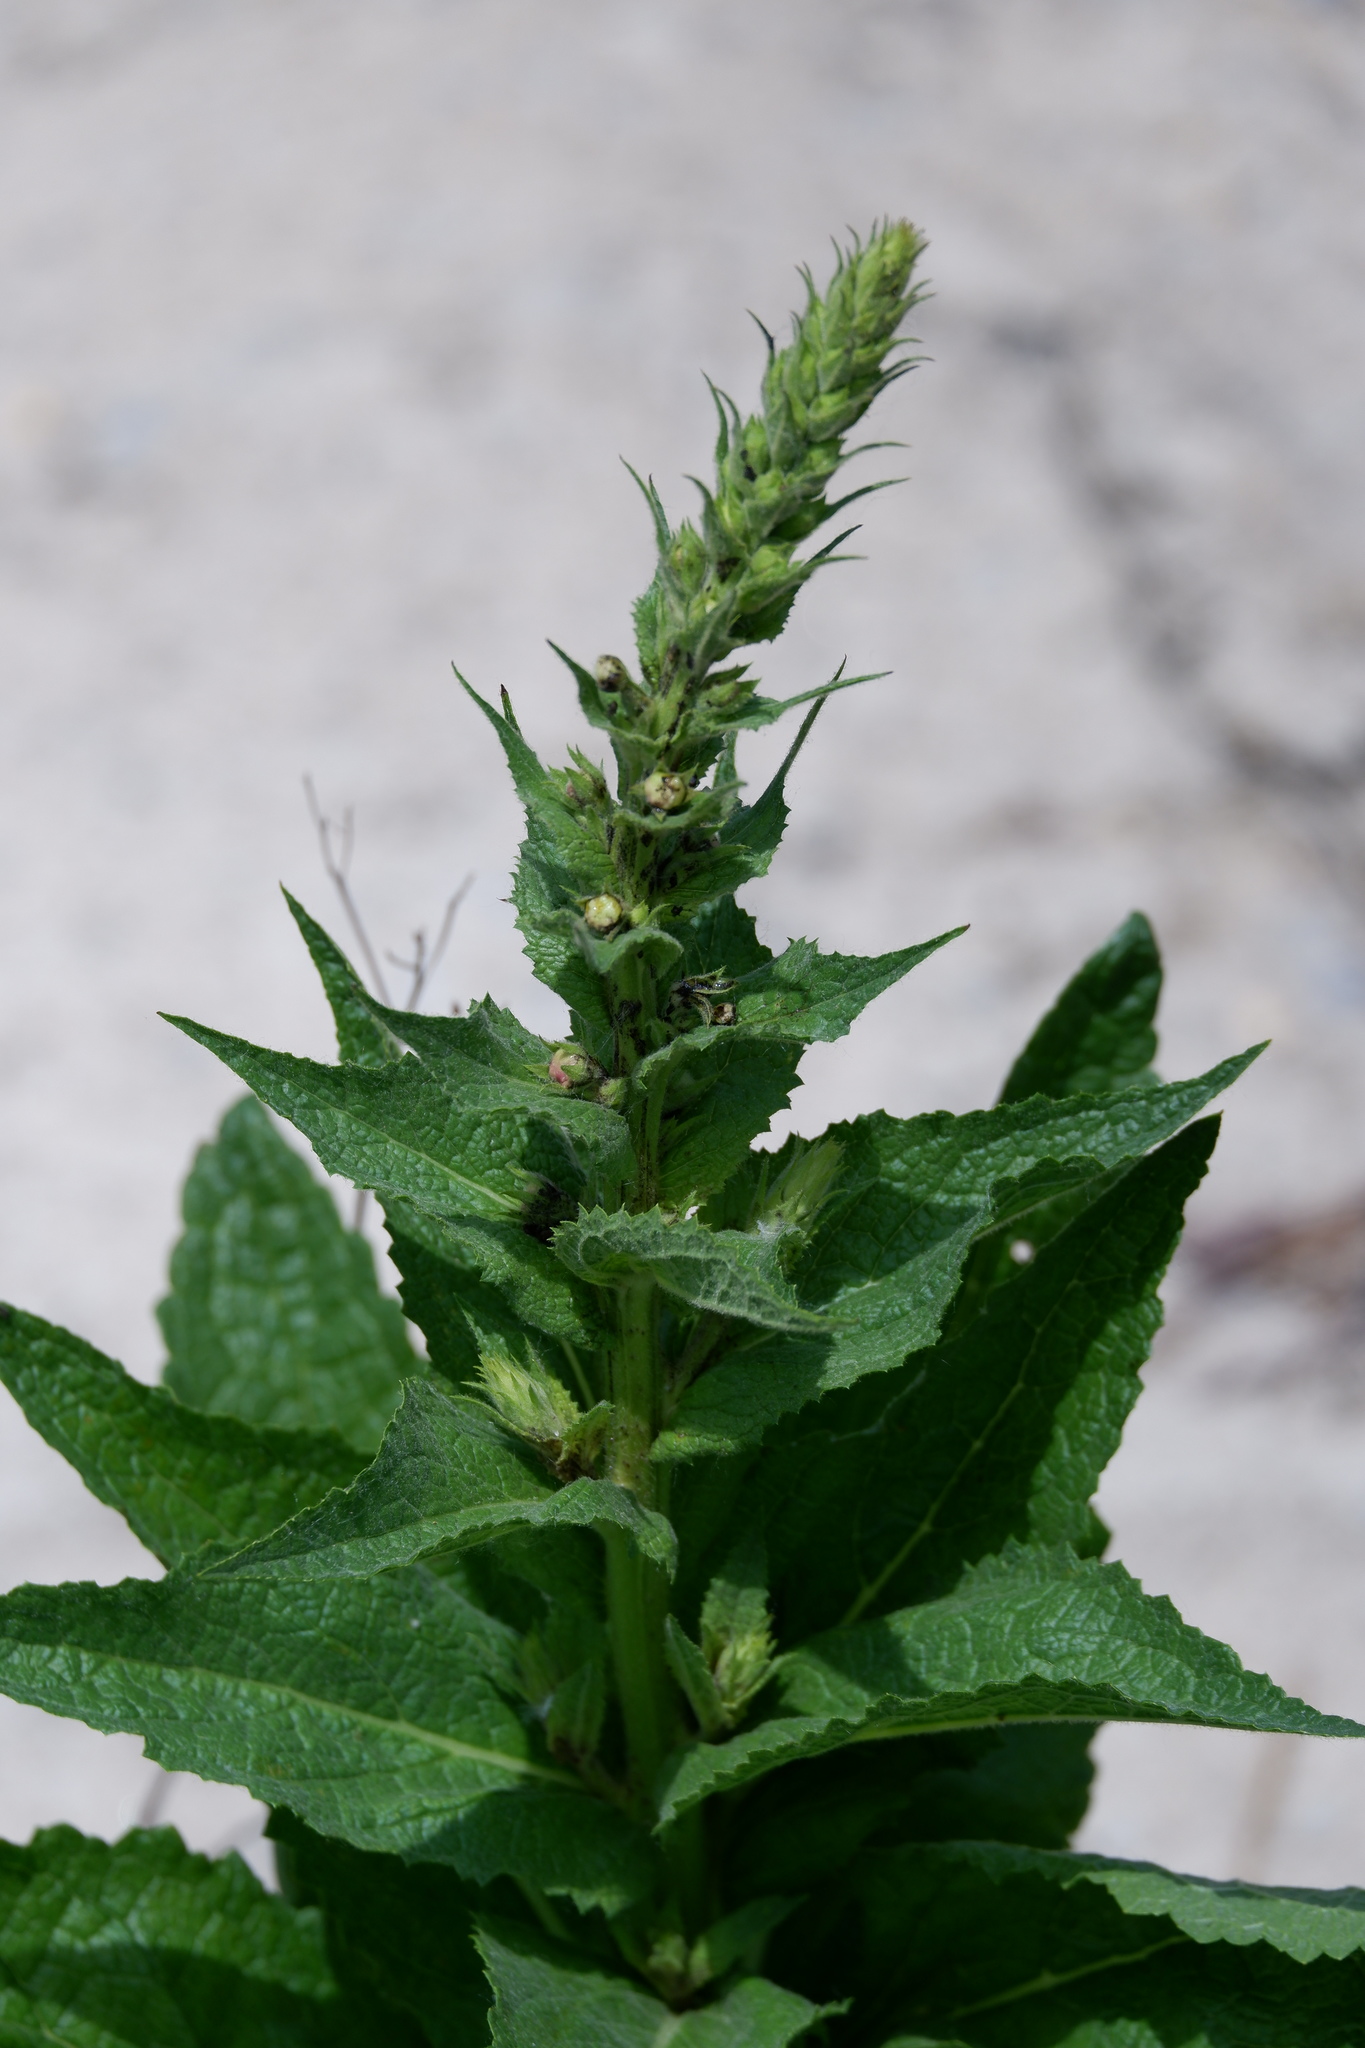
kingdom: Plantae
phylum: Tracheophyta
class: Magnoliopsida
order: Lamiales
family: Scrophulariaceae
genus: Verbascum
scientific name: Verbascum maurum
